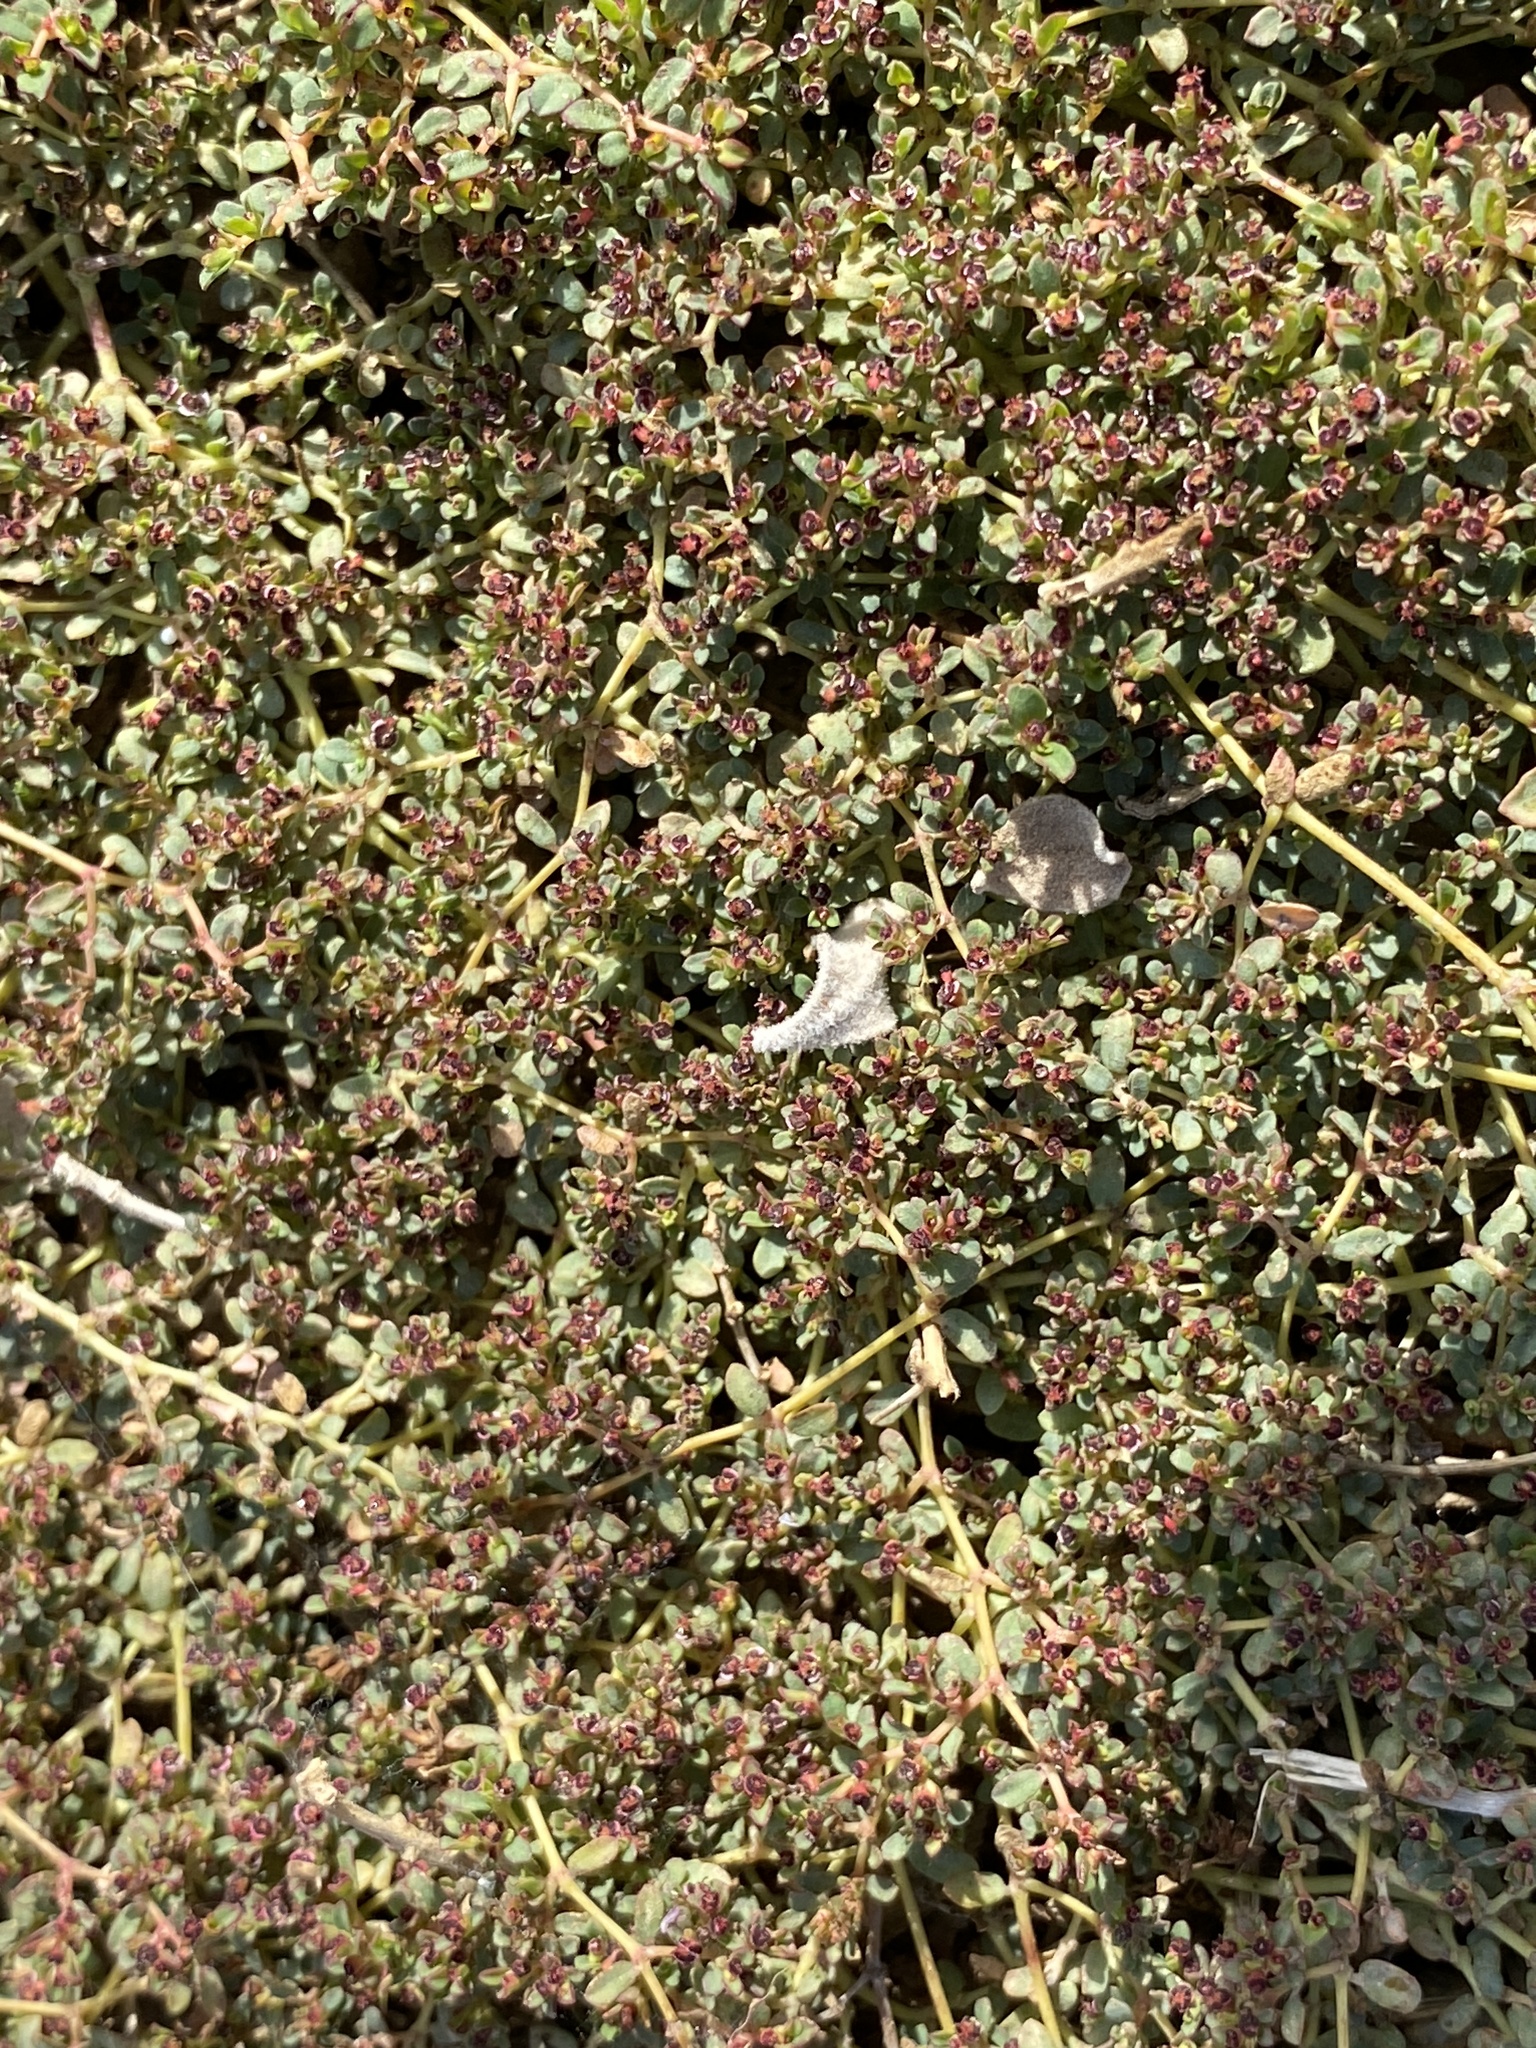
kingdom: Plantae
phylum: Tracheophyta
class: Magnoliopsida
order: Malpighiales
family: Euphorbiaceae
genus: Euphorbia
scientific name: Euphorbia polycarpa
